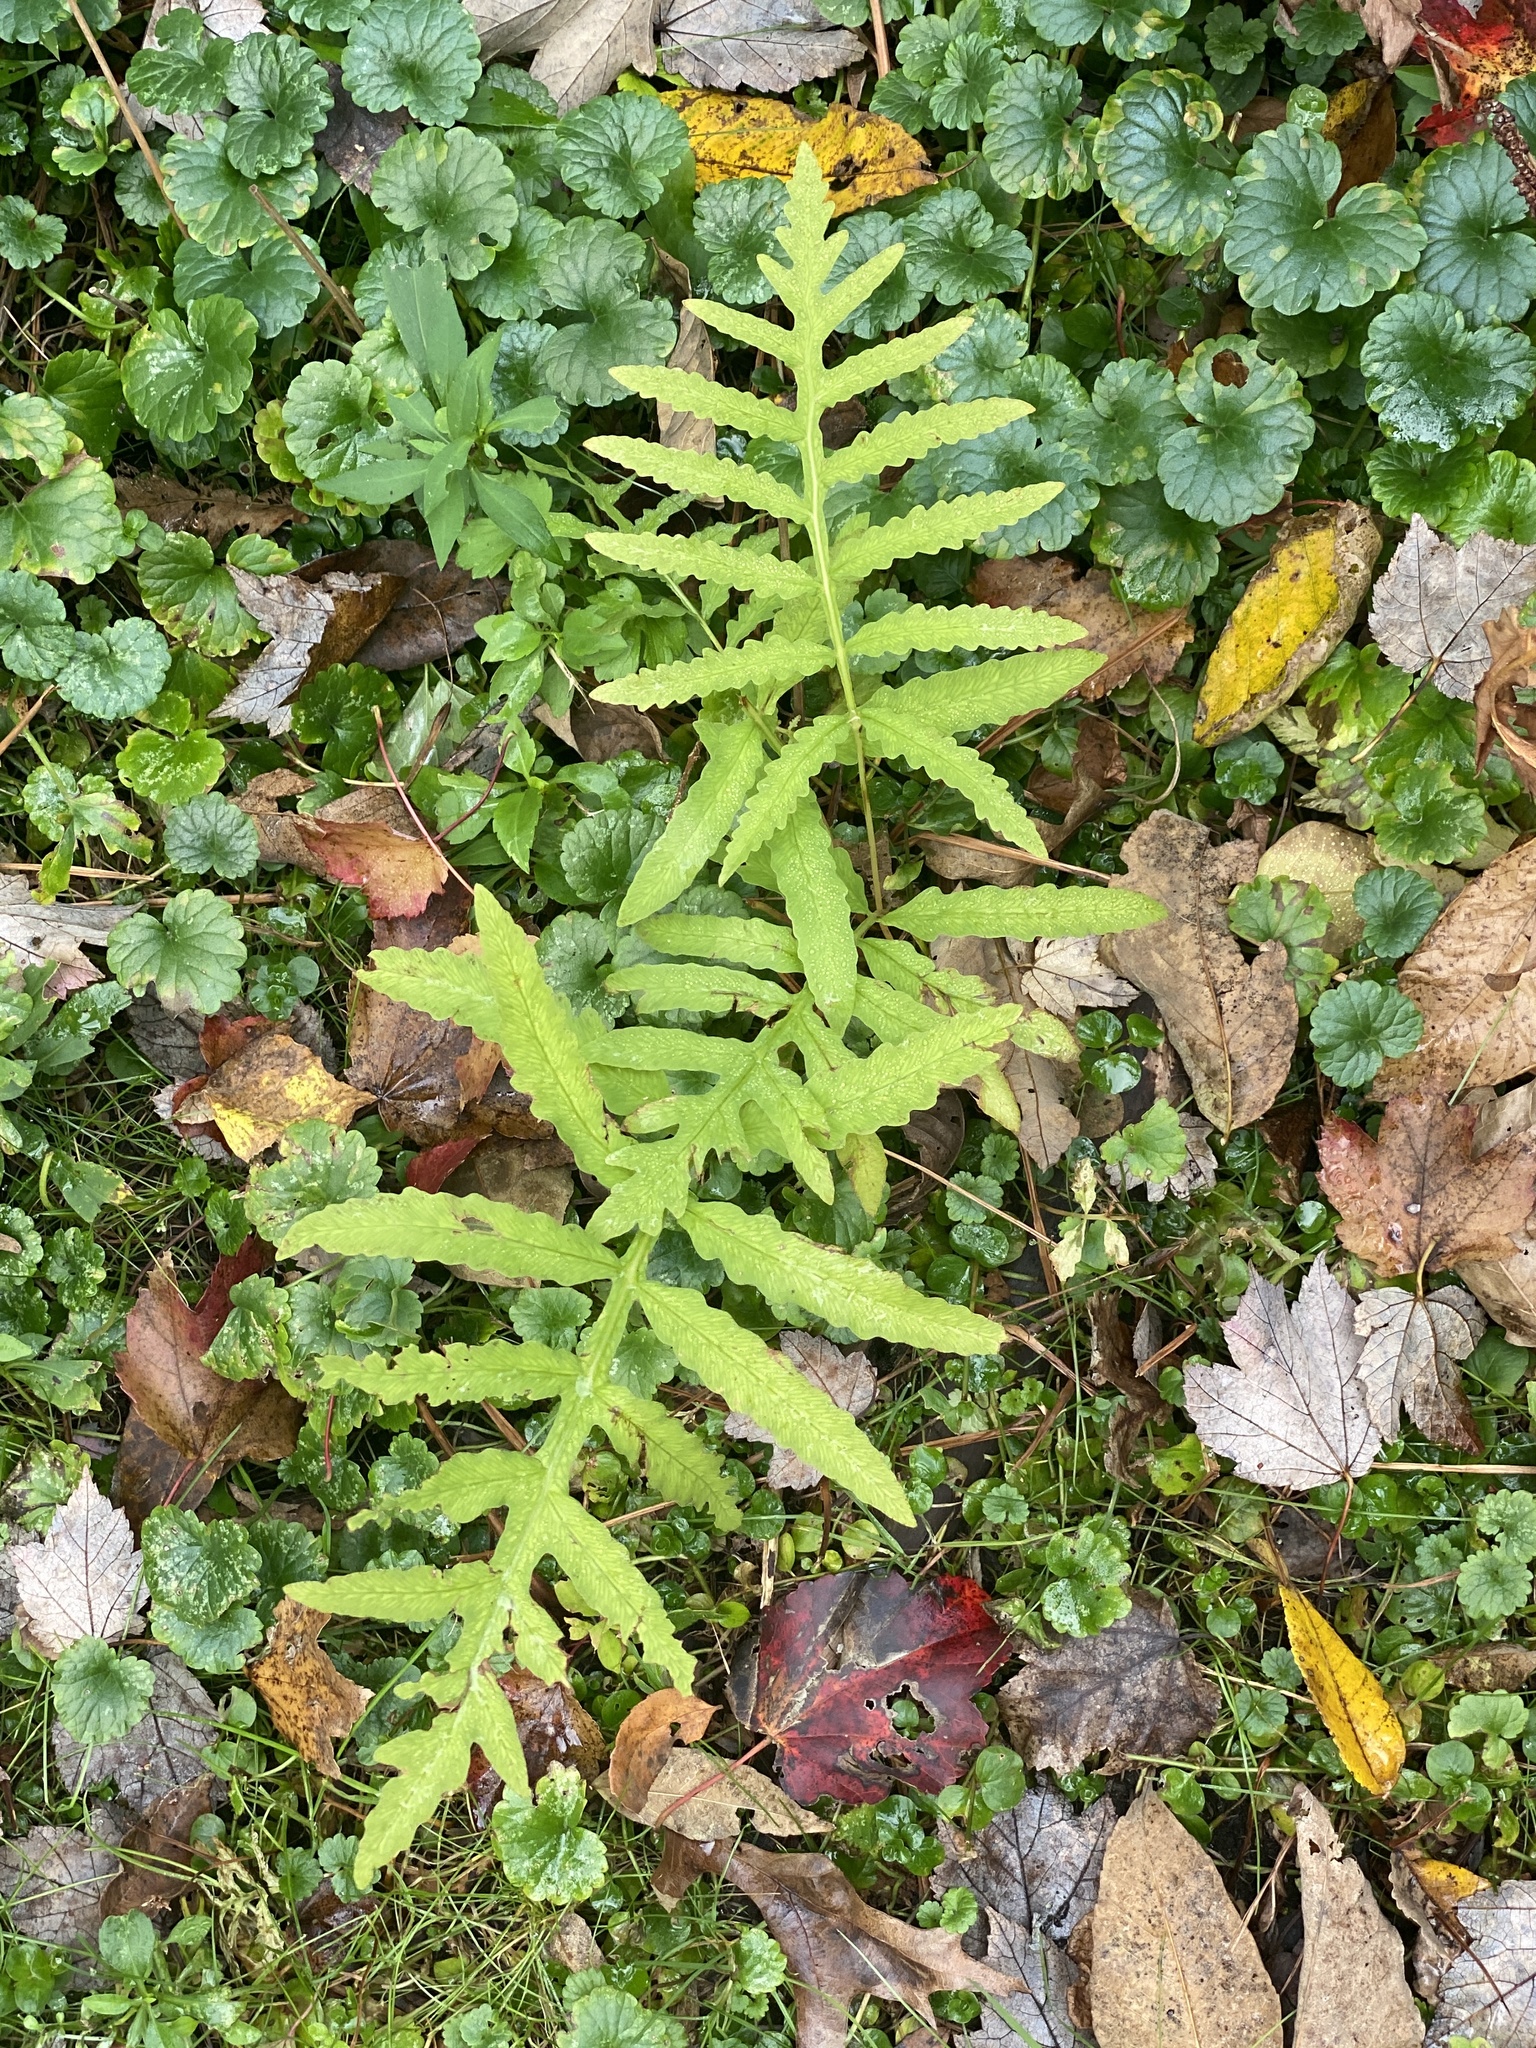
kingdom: Plantae
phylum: Tracheophyta
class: Polypodiopsida
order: Polypodiales
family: Onocleaceae
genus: Onoclea
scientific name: Onoclea sensibilis
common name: Sensitive fern
